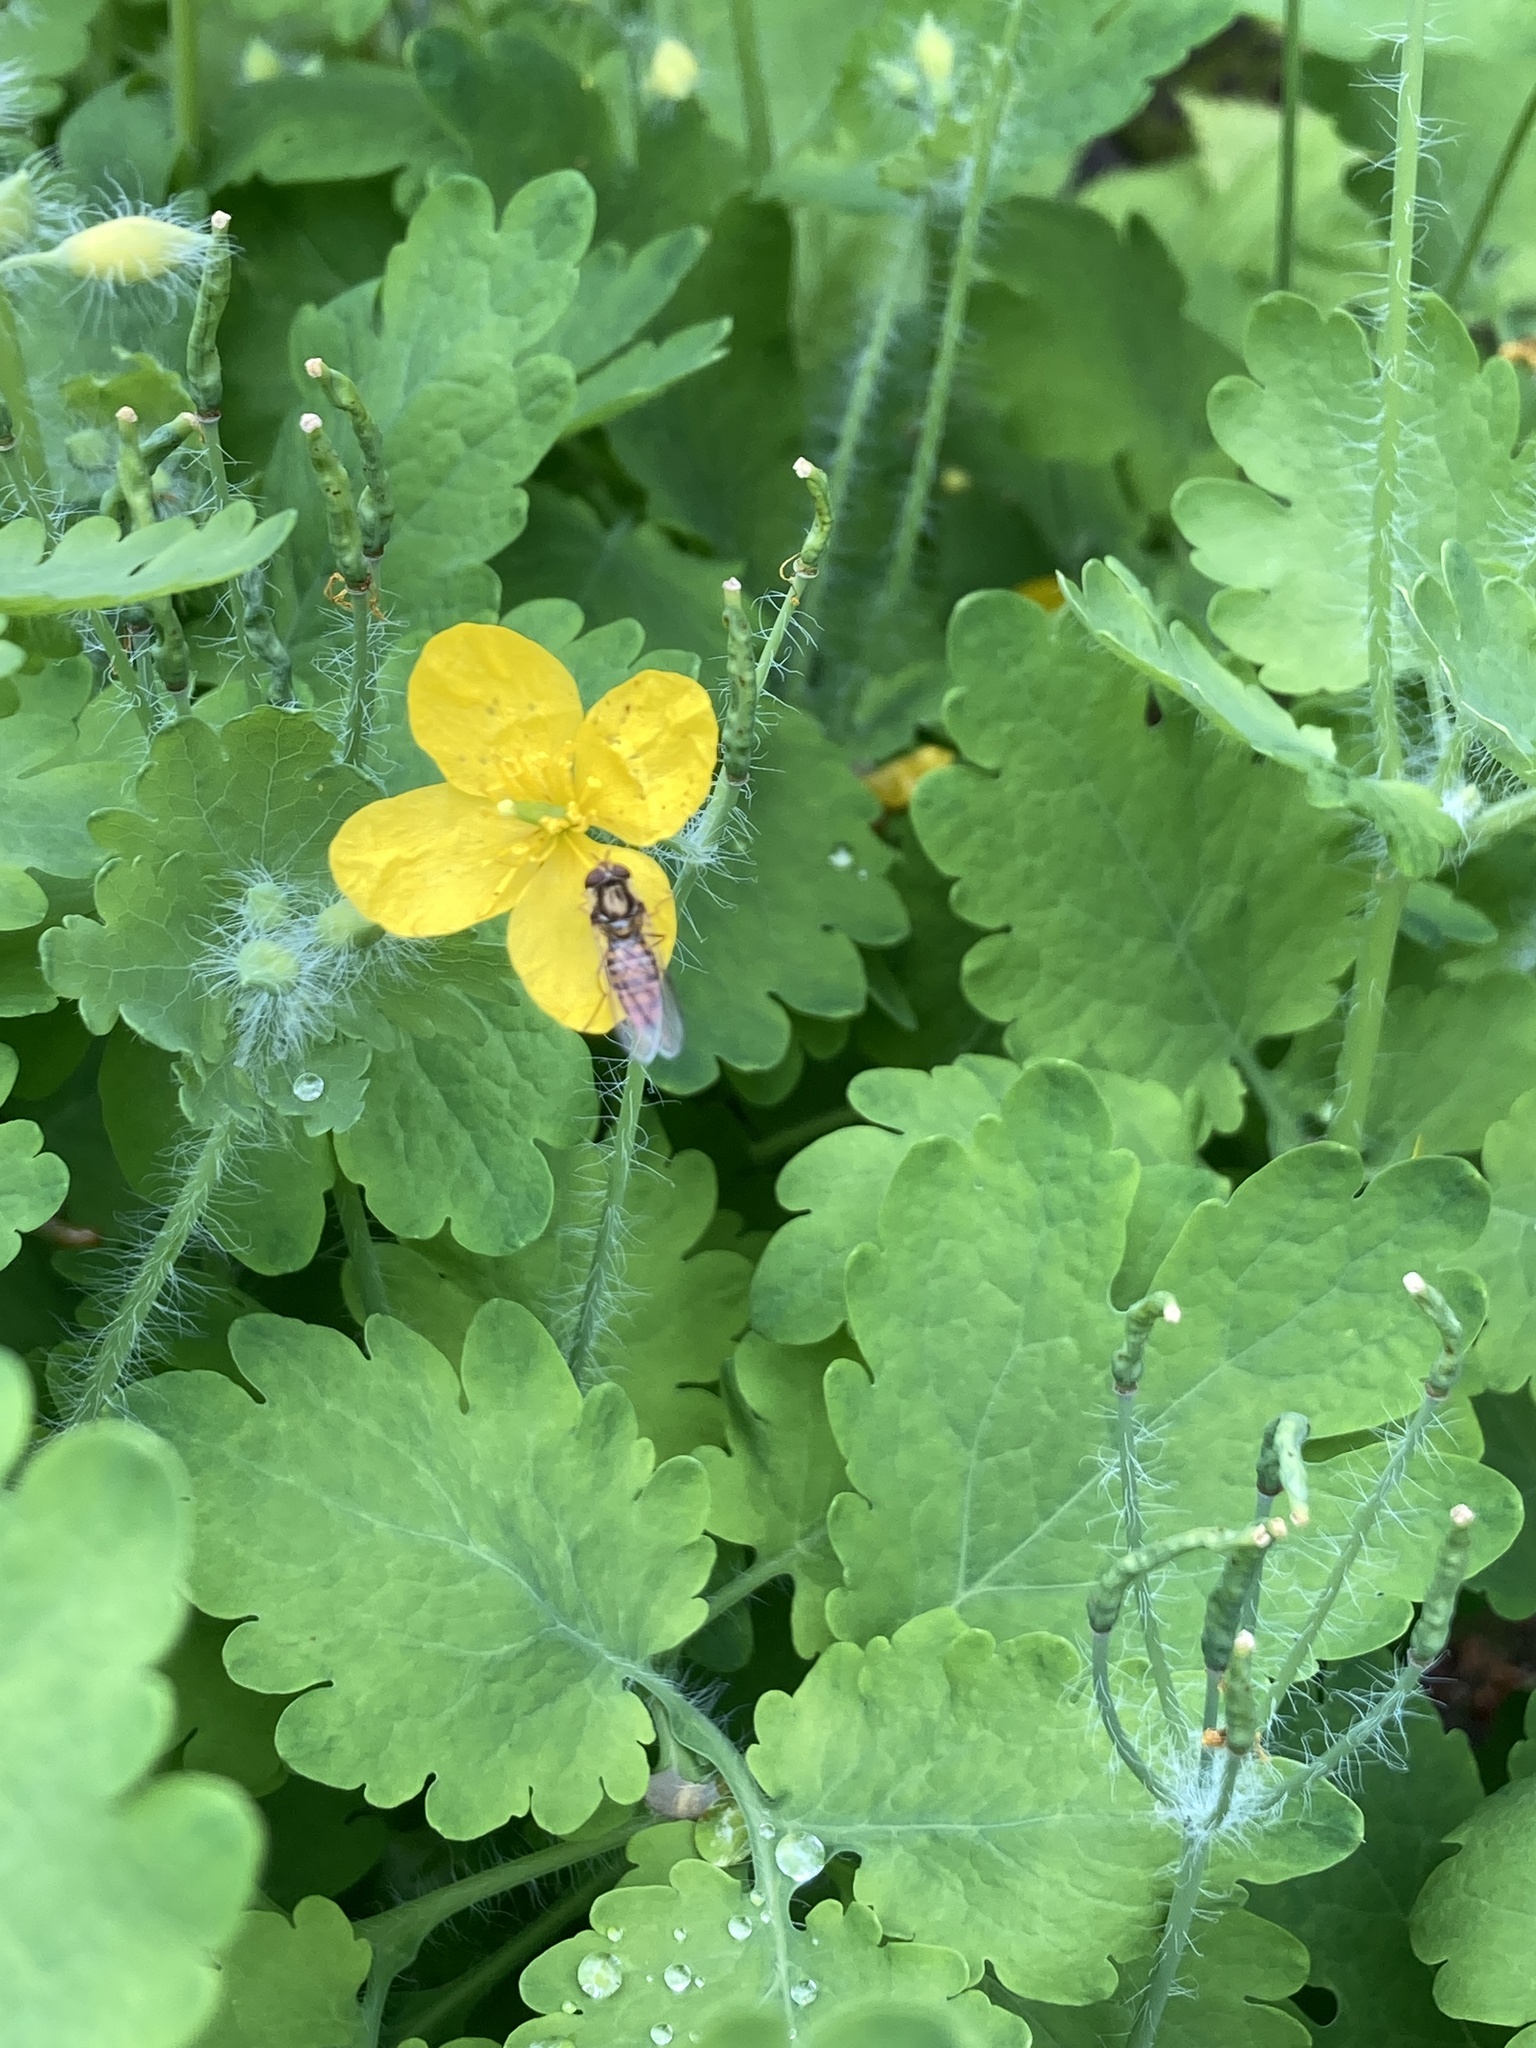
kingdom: Animalia
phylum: Arthropoda
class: Insecta
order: Diptera
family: Syrphidae
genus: Episyrphus
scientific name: Episyrphus balteatus
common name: Marmalade hoverfly
